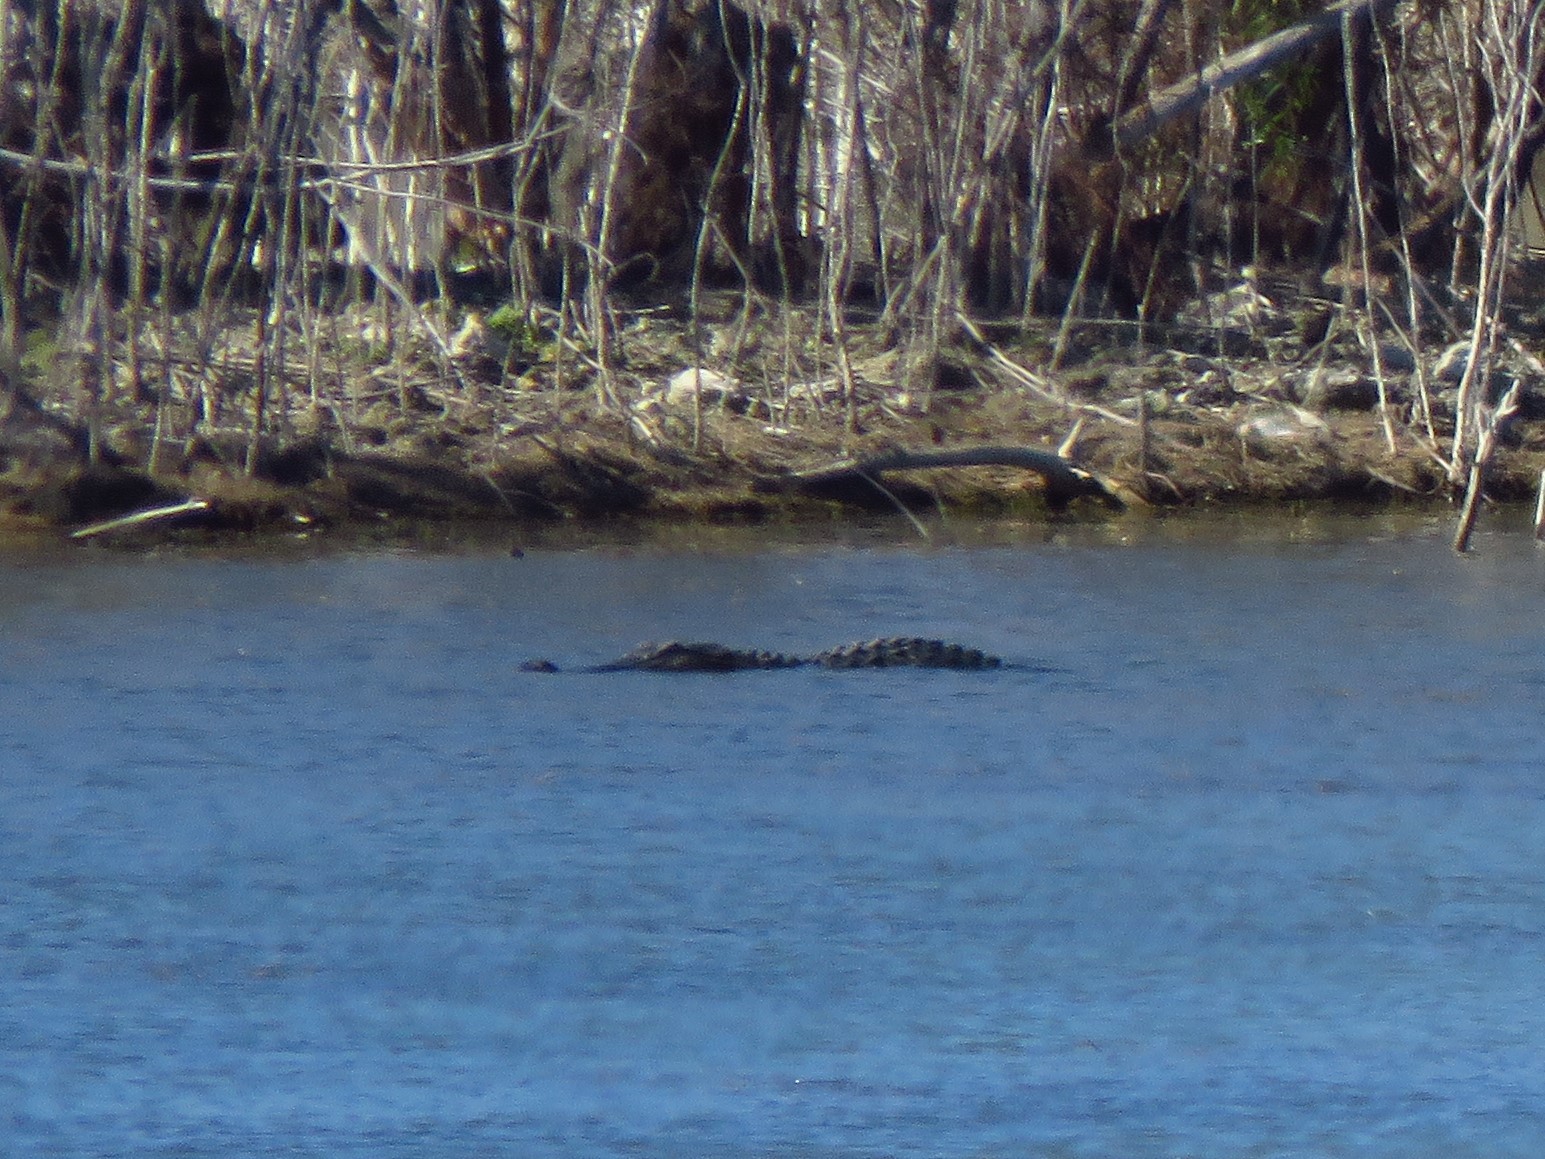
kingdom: Animalia
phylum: Chordata
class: Crocodylia
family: Alligatoridae
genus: Alligator
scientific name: Alligator mississippiensis
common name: American alligator
